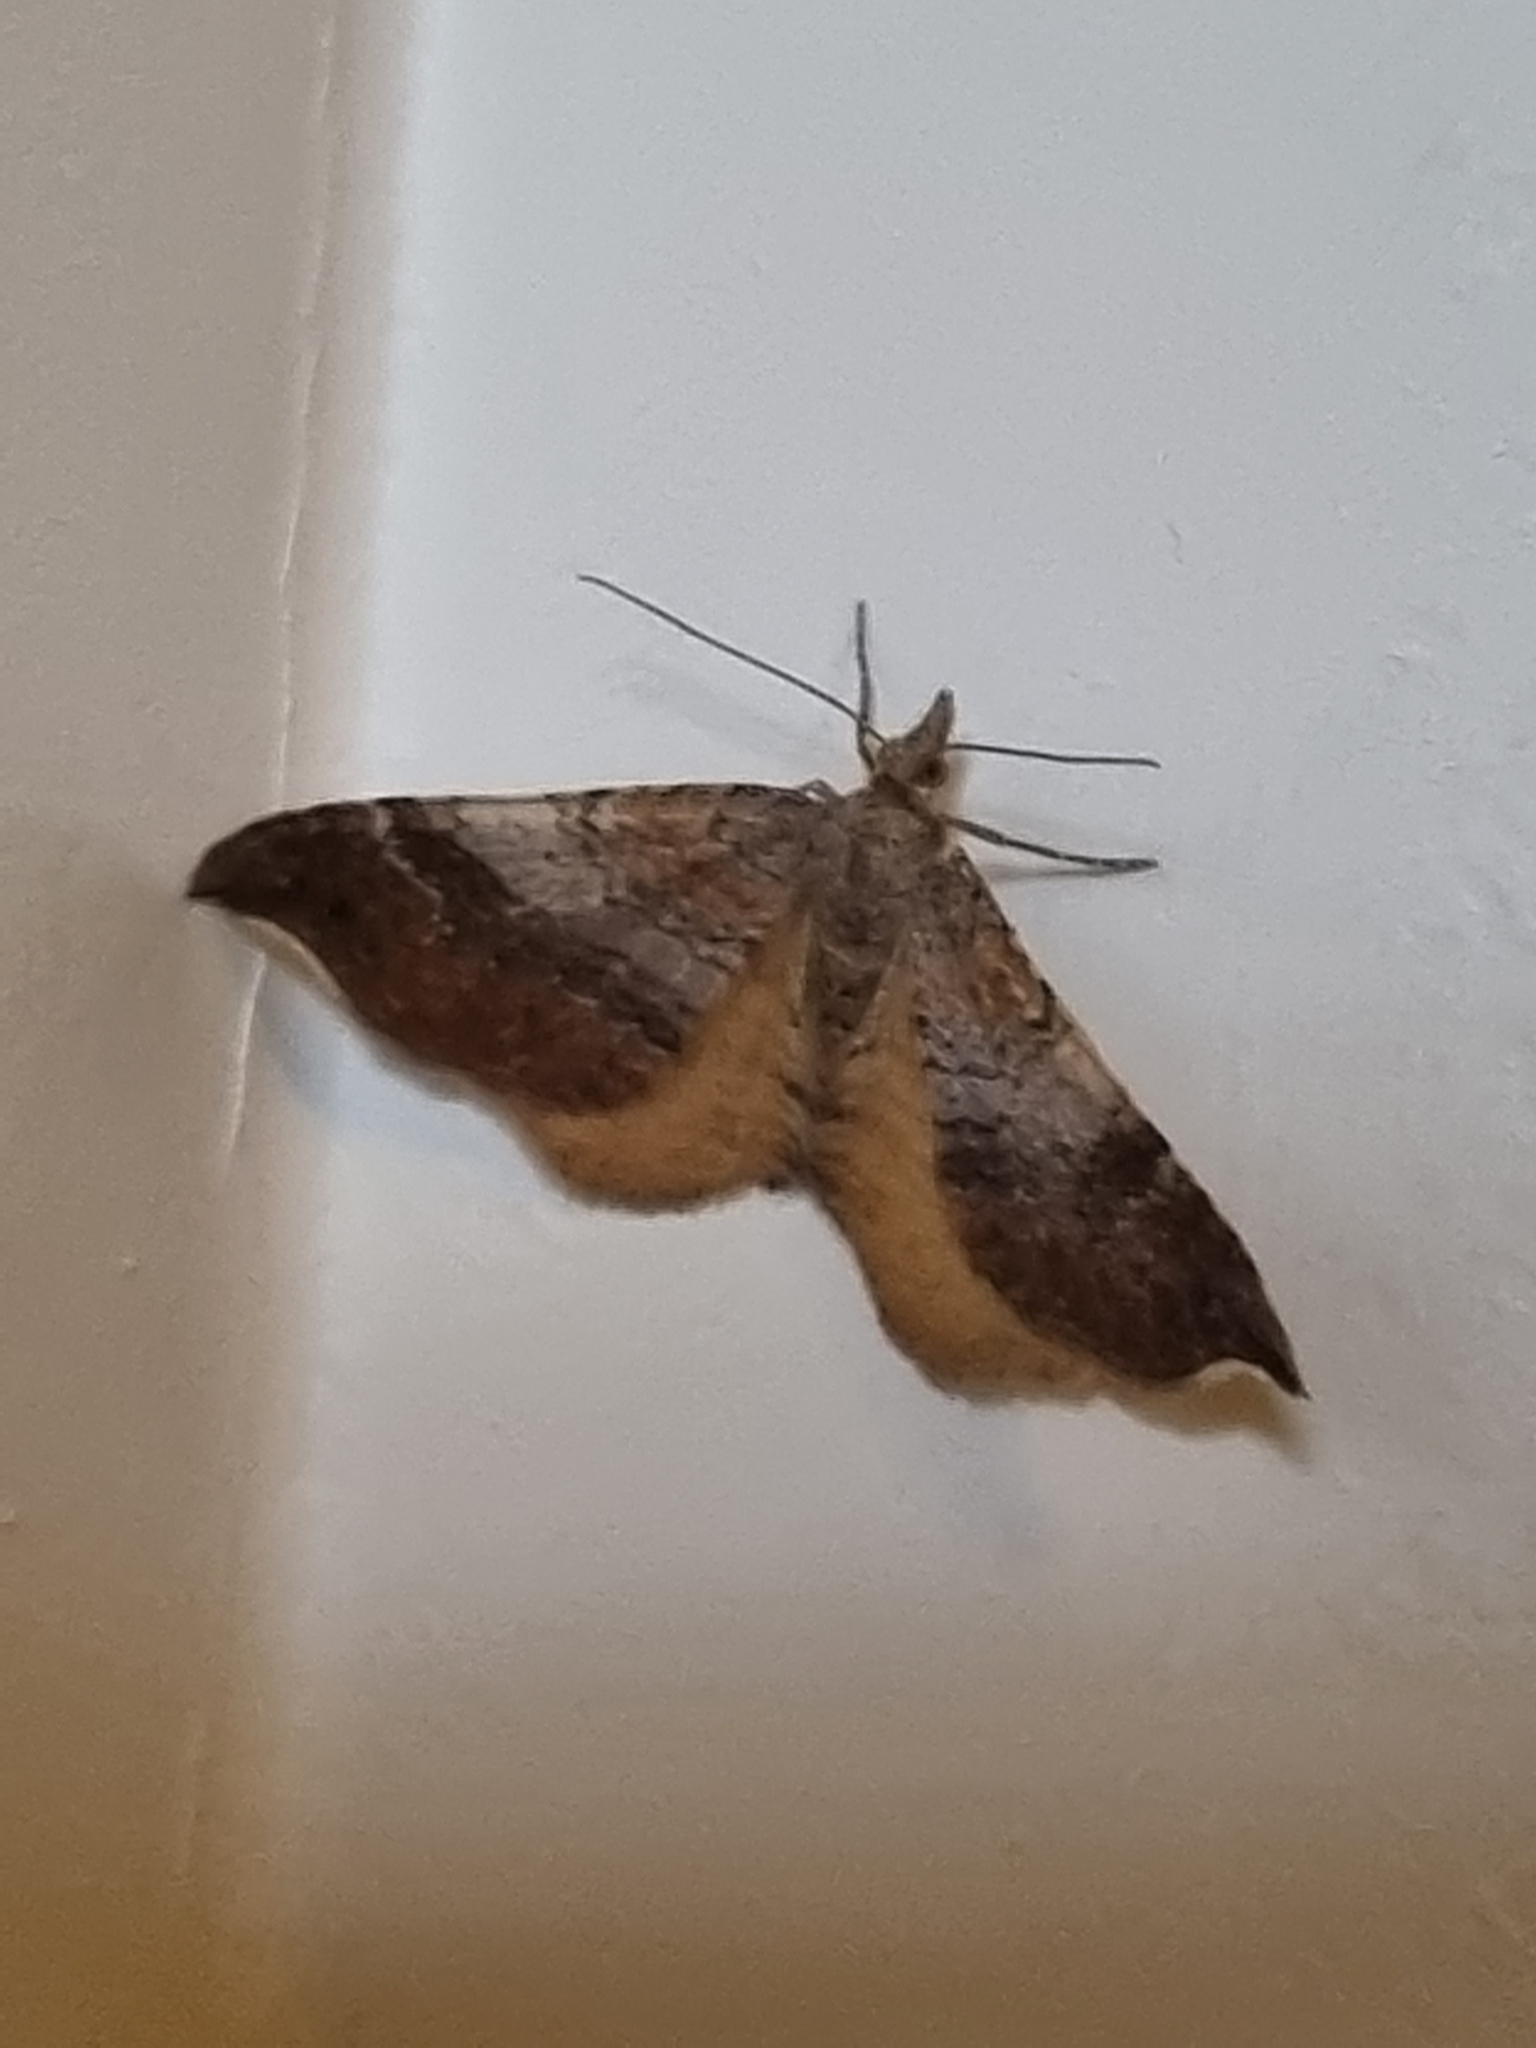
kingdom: Animalia
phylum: Arthropoda
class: Insecta
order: Lepidoptera
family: Geometridae
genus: Homodotis
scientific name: Homodotis megaspilata
